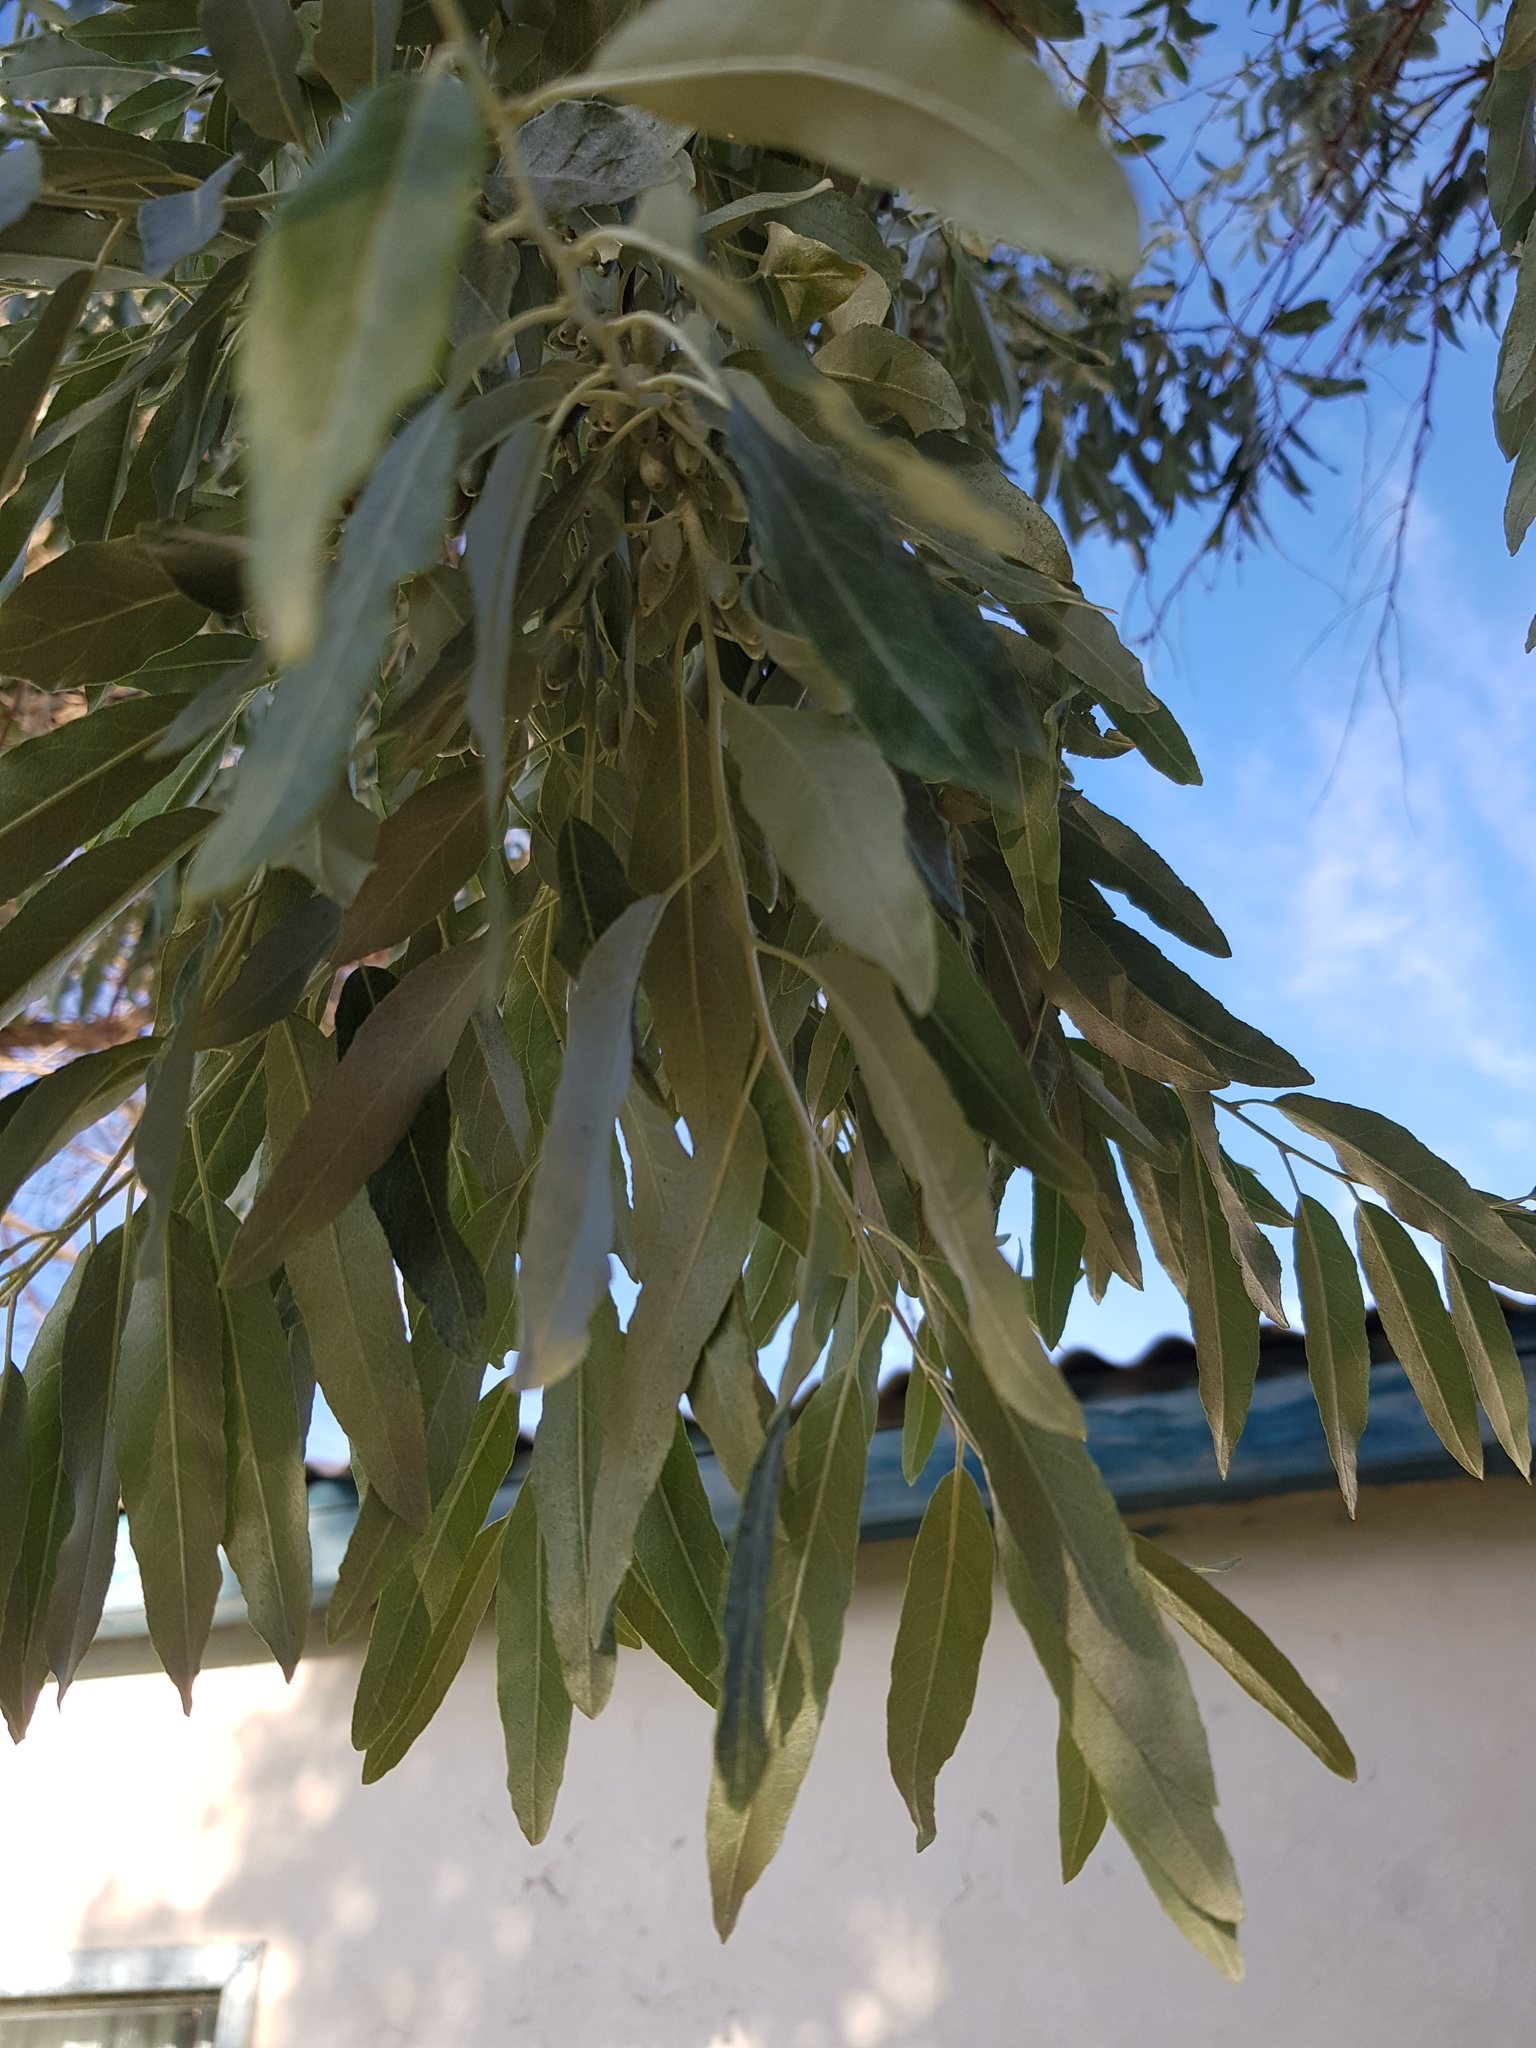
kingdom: Plantae
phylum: Tracheophyta
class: Magnoliopsida
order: Rosales
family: Elaeagnaceae
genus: Elaeagnus
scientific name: Elaeagnus angustifolia
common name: Russian olive
